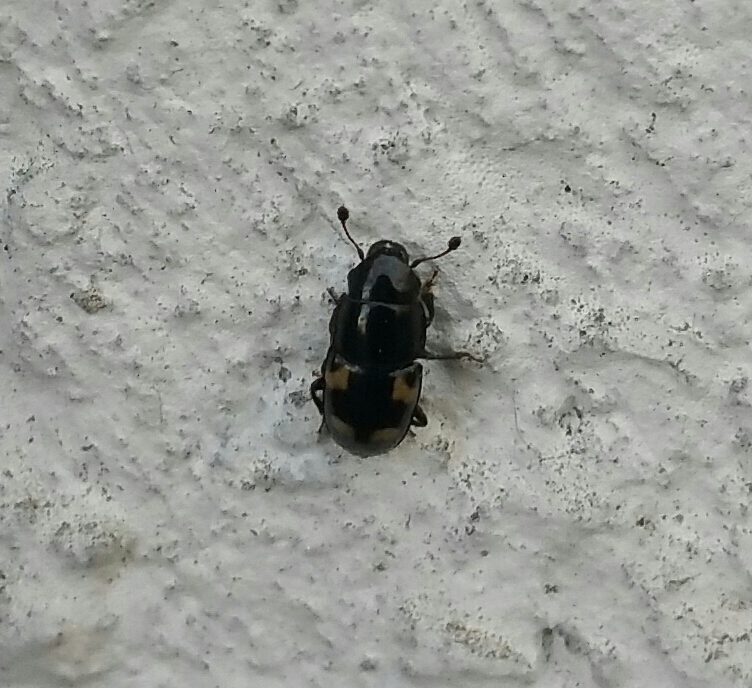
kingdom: Animalia
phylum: Arthropoda
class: Insecta
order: Coleoptera
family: Nitidulidae
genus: Glischrochilus
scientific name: Glischrochilus quadrisignatus
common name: Picnic beetle
